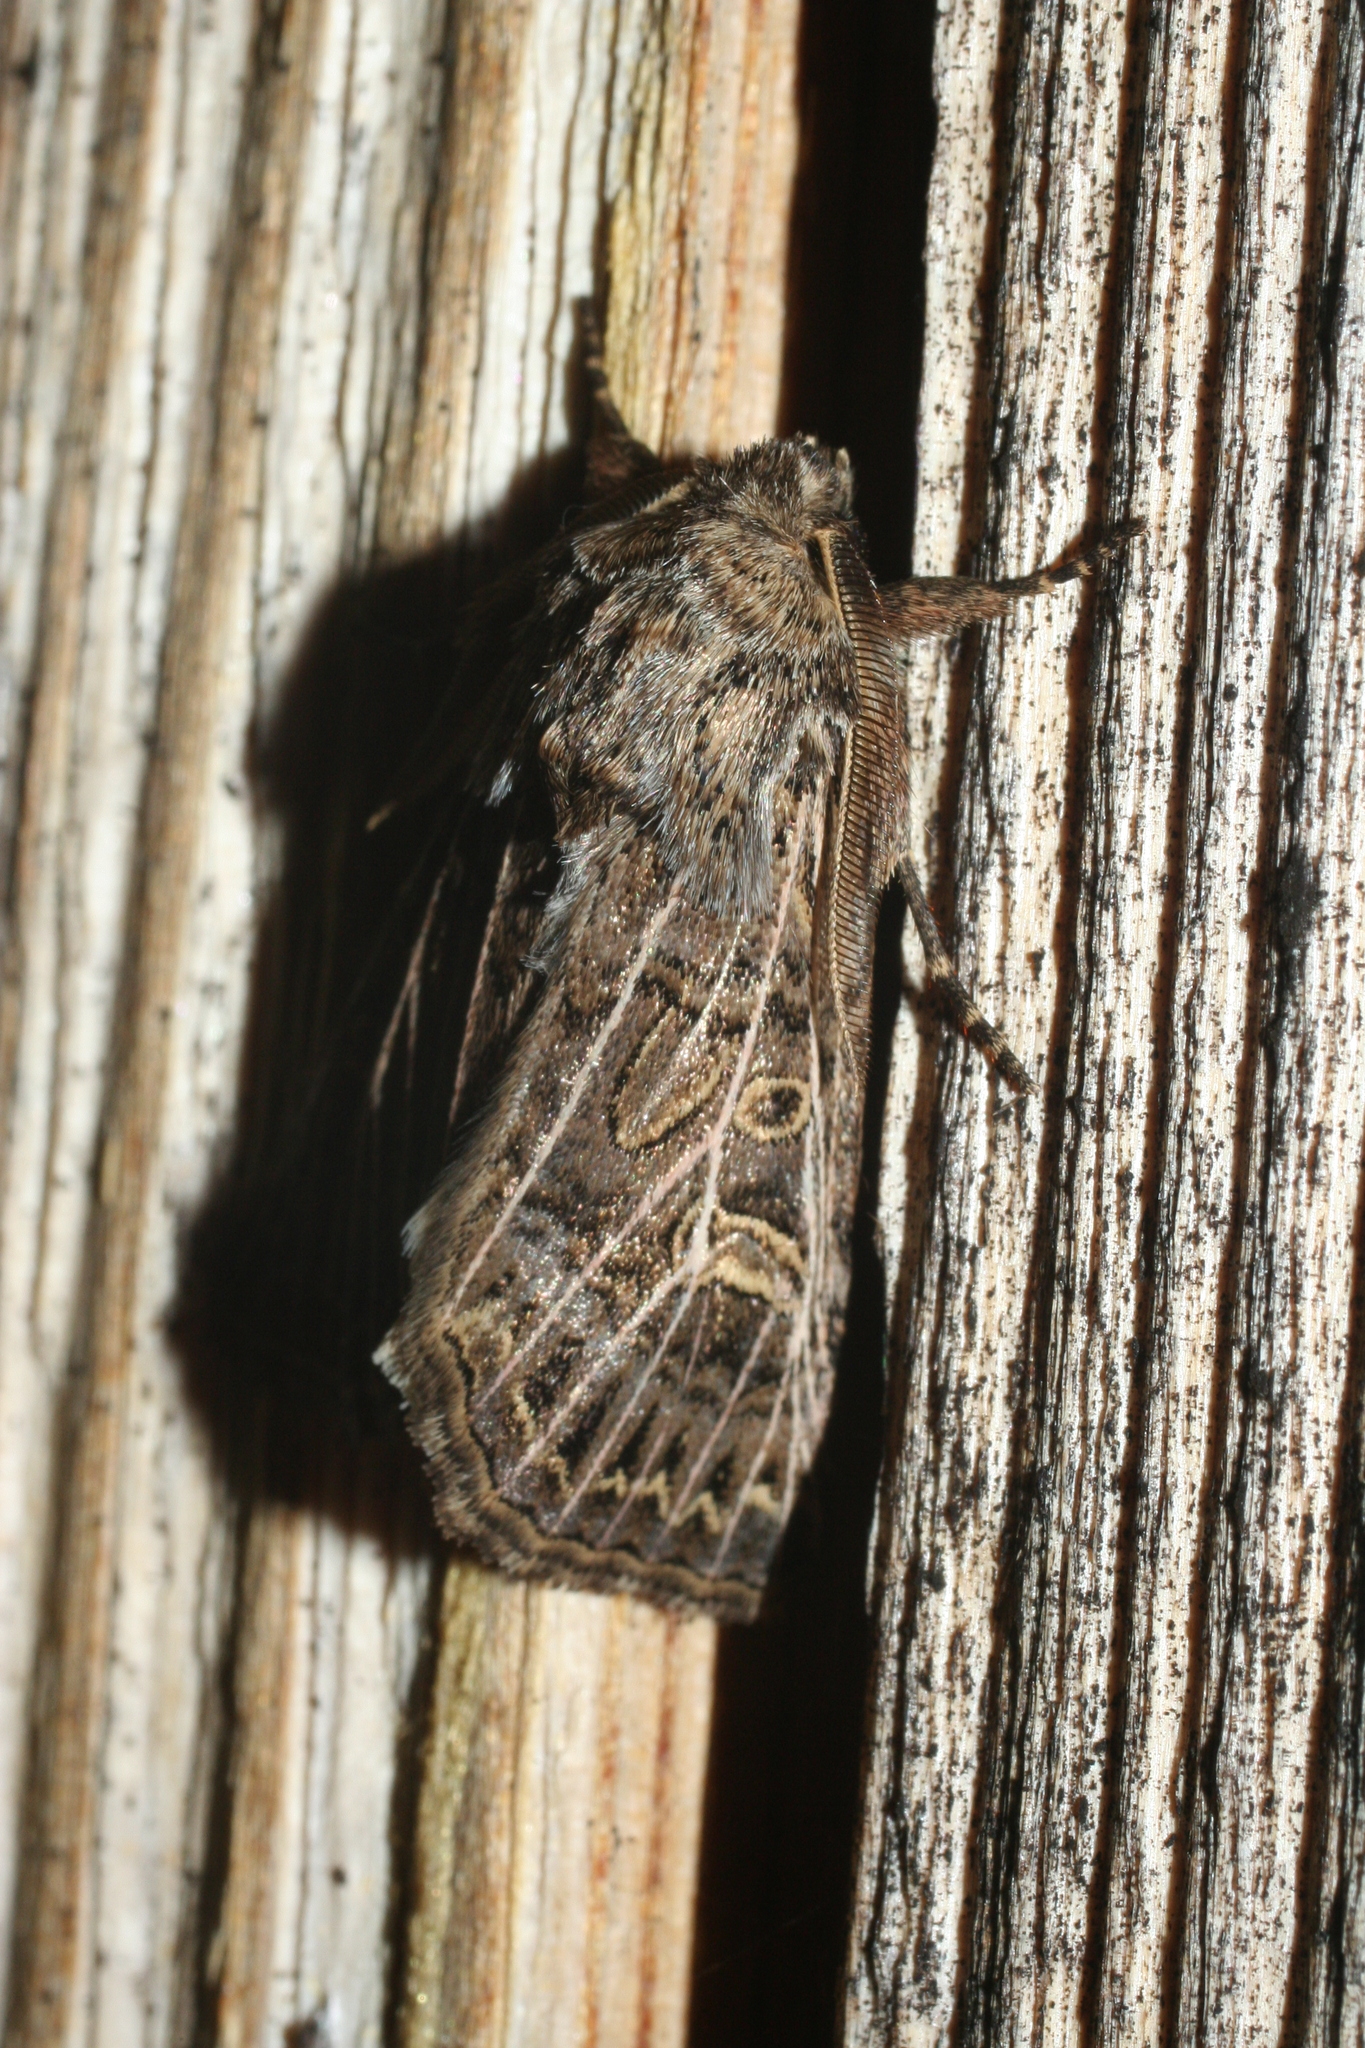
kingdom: Animalia
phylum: Arthropoda
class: Insecta
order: Lepidoptera
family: Noctuidae
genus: Tholera
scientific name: Tholera decimalis
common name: Feathered gothic
